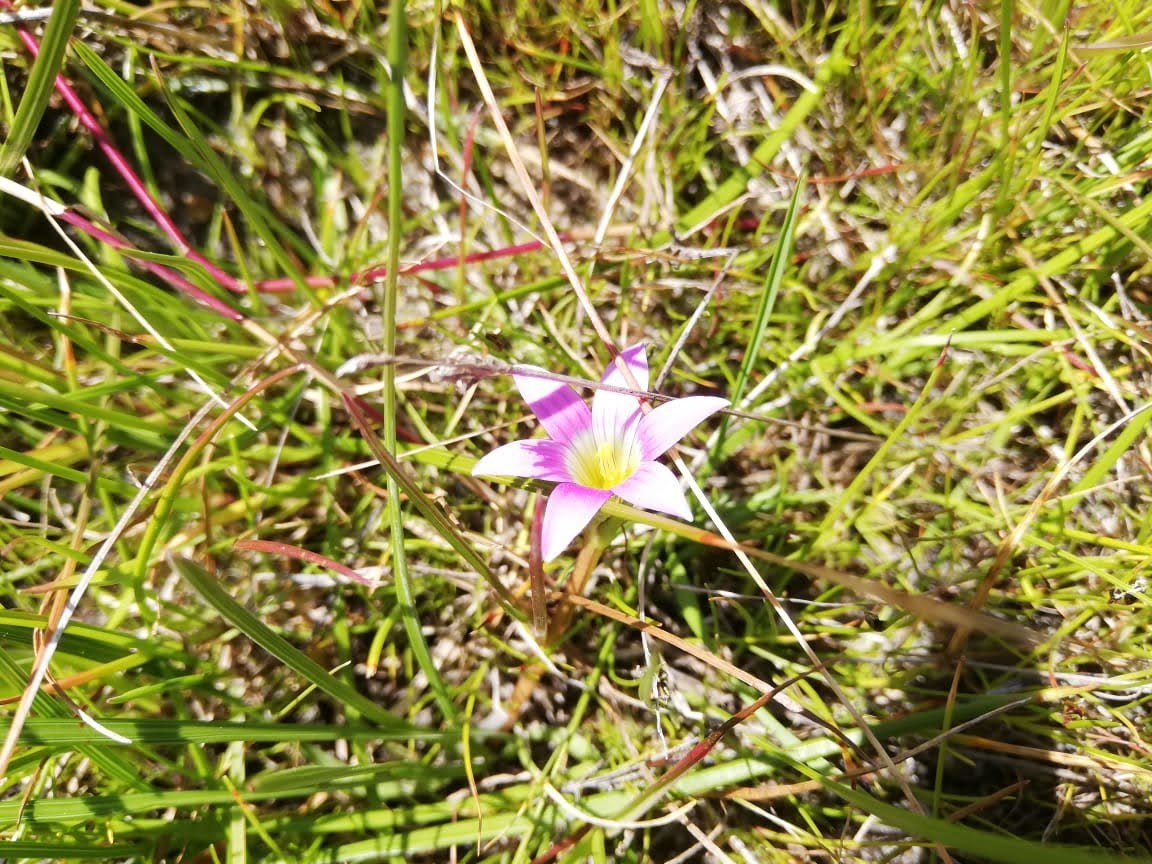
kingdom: Plantae
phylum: Tracheophyta
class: Liliopsida
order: Asparagales
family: Iridaceae
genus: Romulea
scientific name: Romulea rosea
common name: Oniongrass
